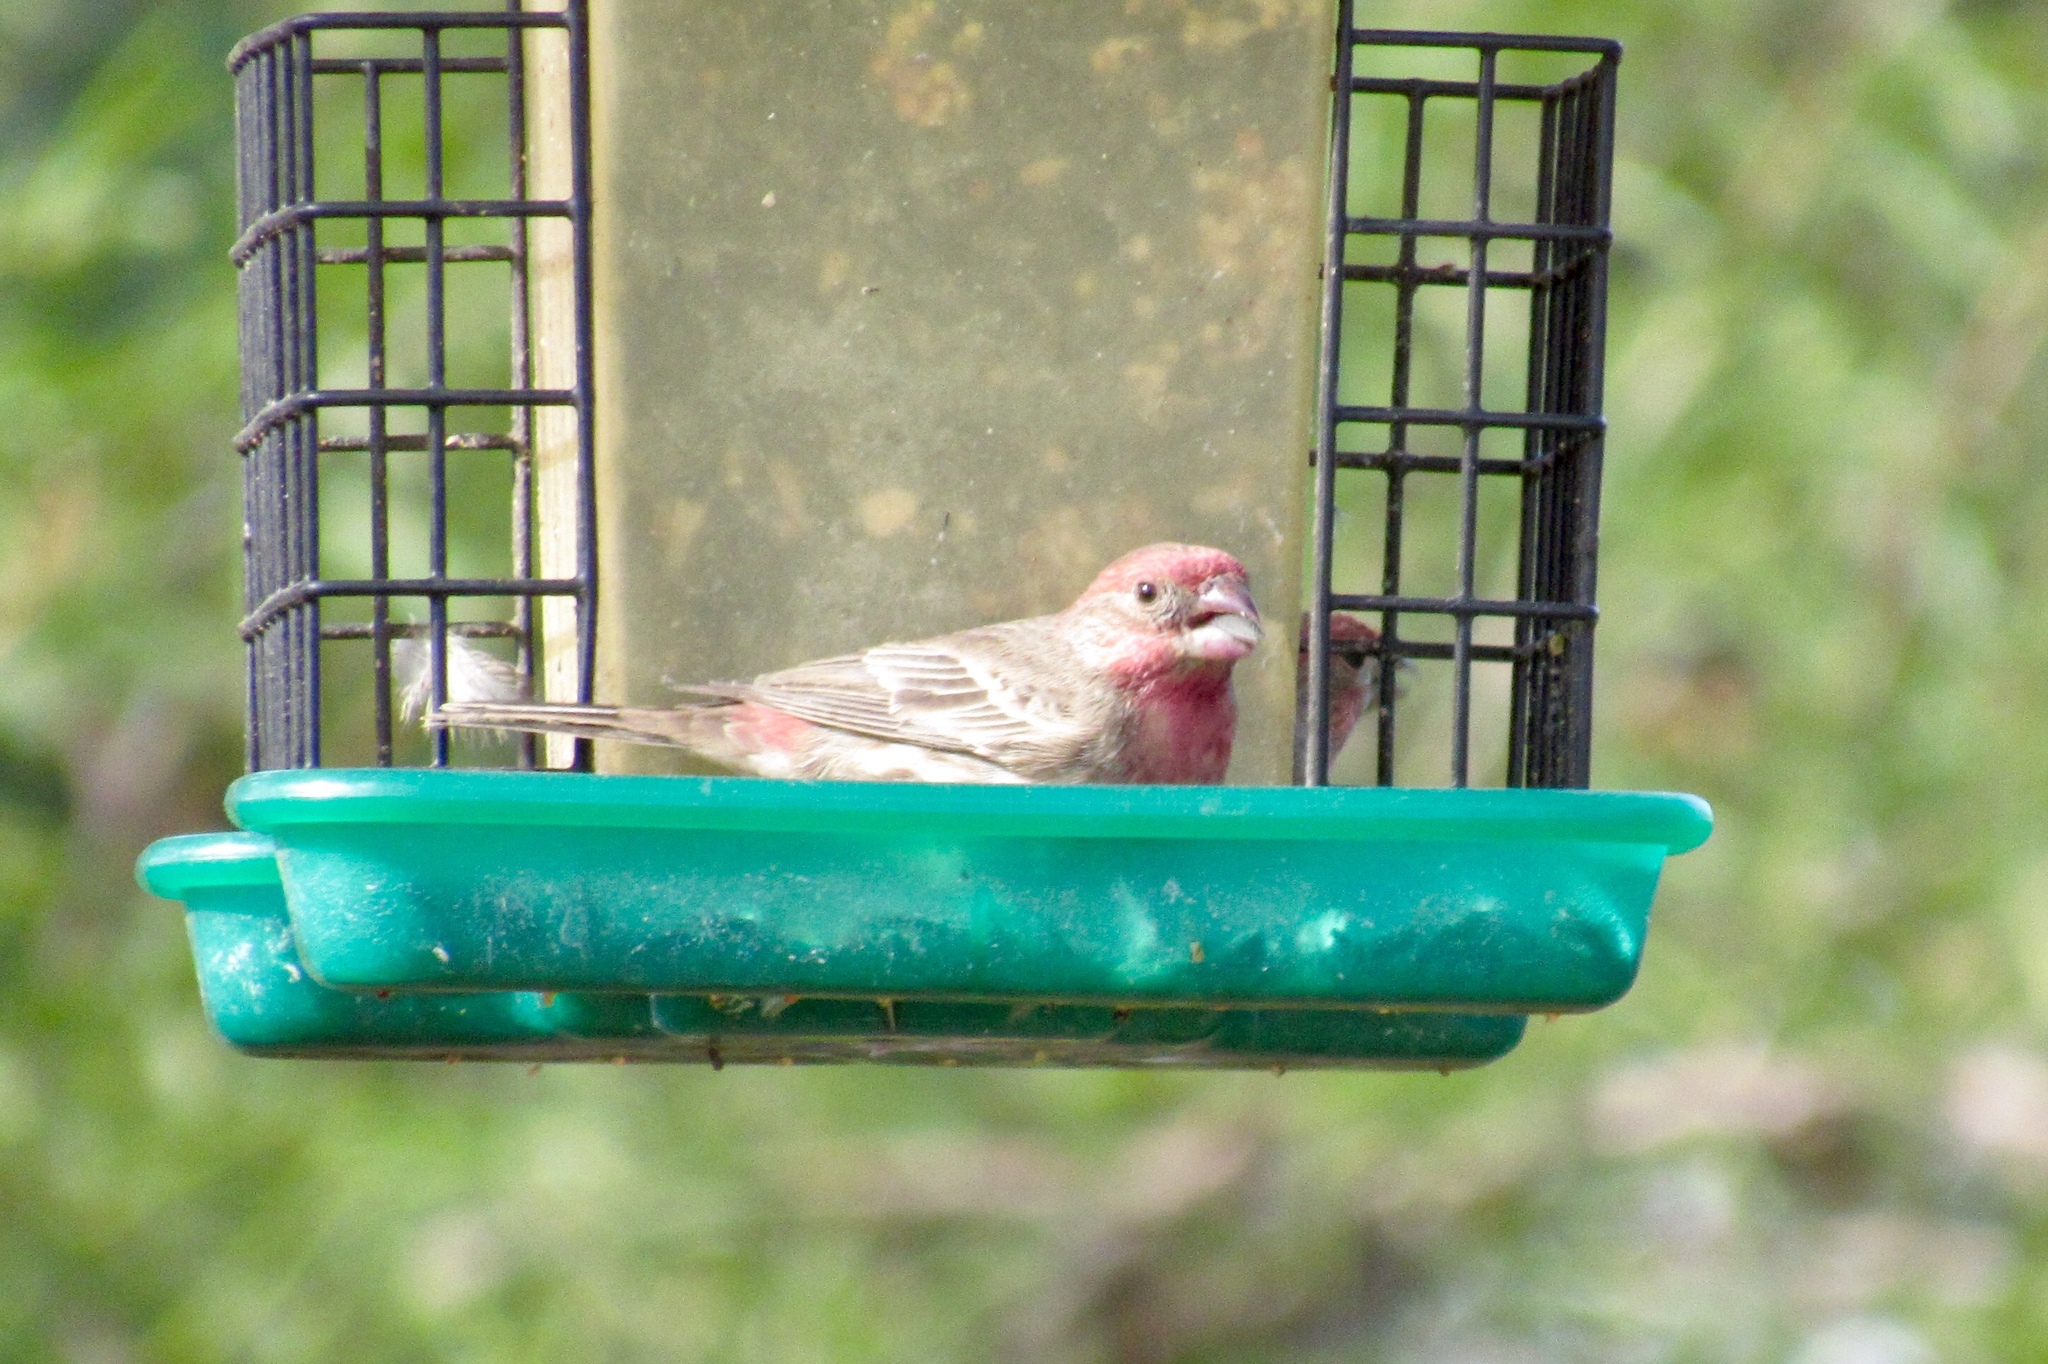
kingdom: Animalia
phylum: Chordata
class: Aves
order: Passeriformes
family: Fringillidae
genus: Haemorhous
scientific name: Haemorhous mexicanus
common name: House finch
